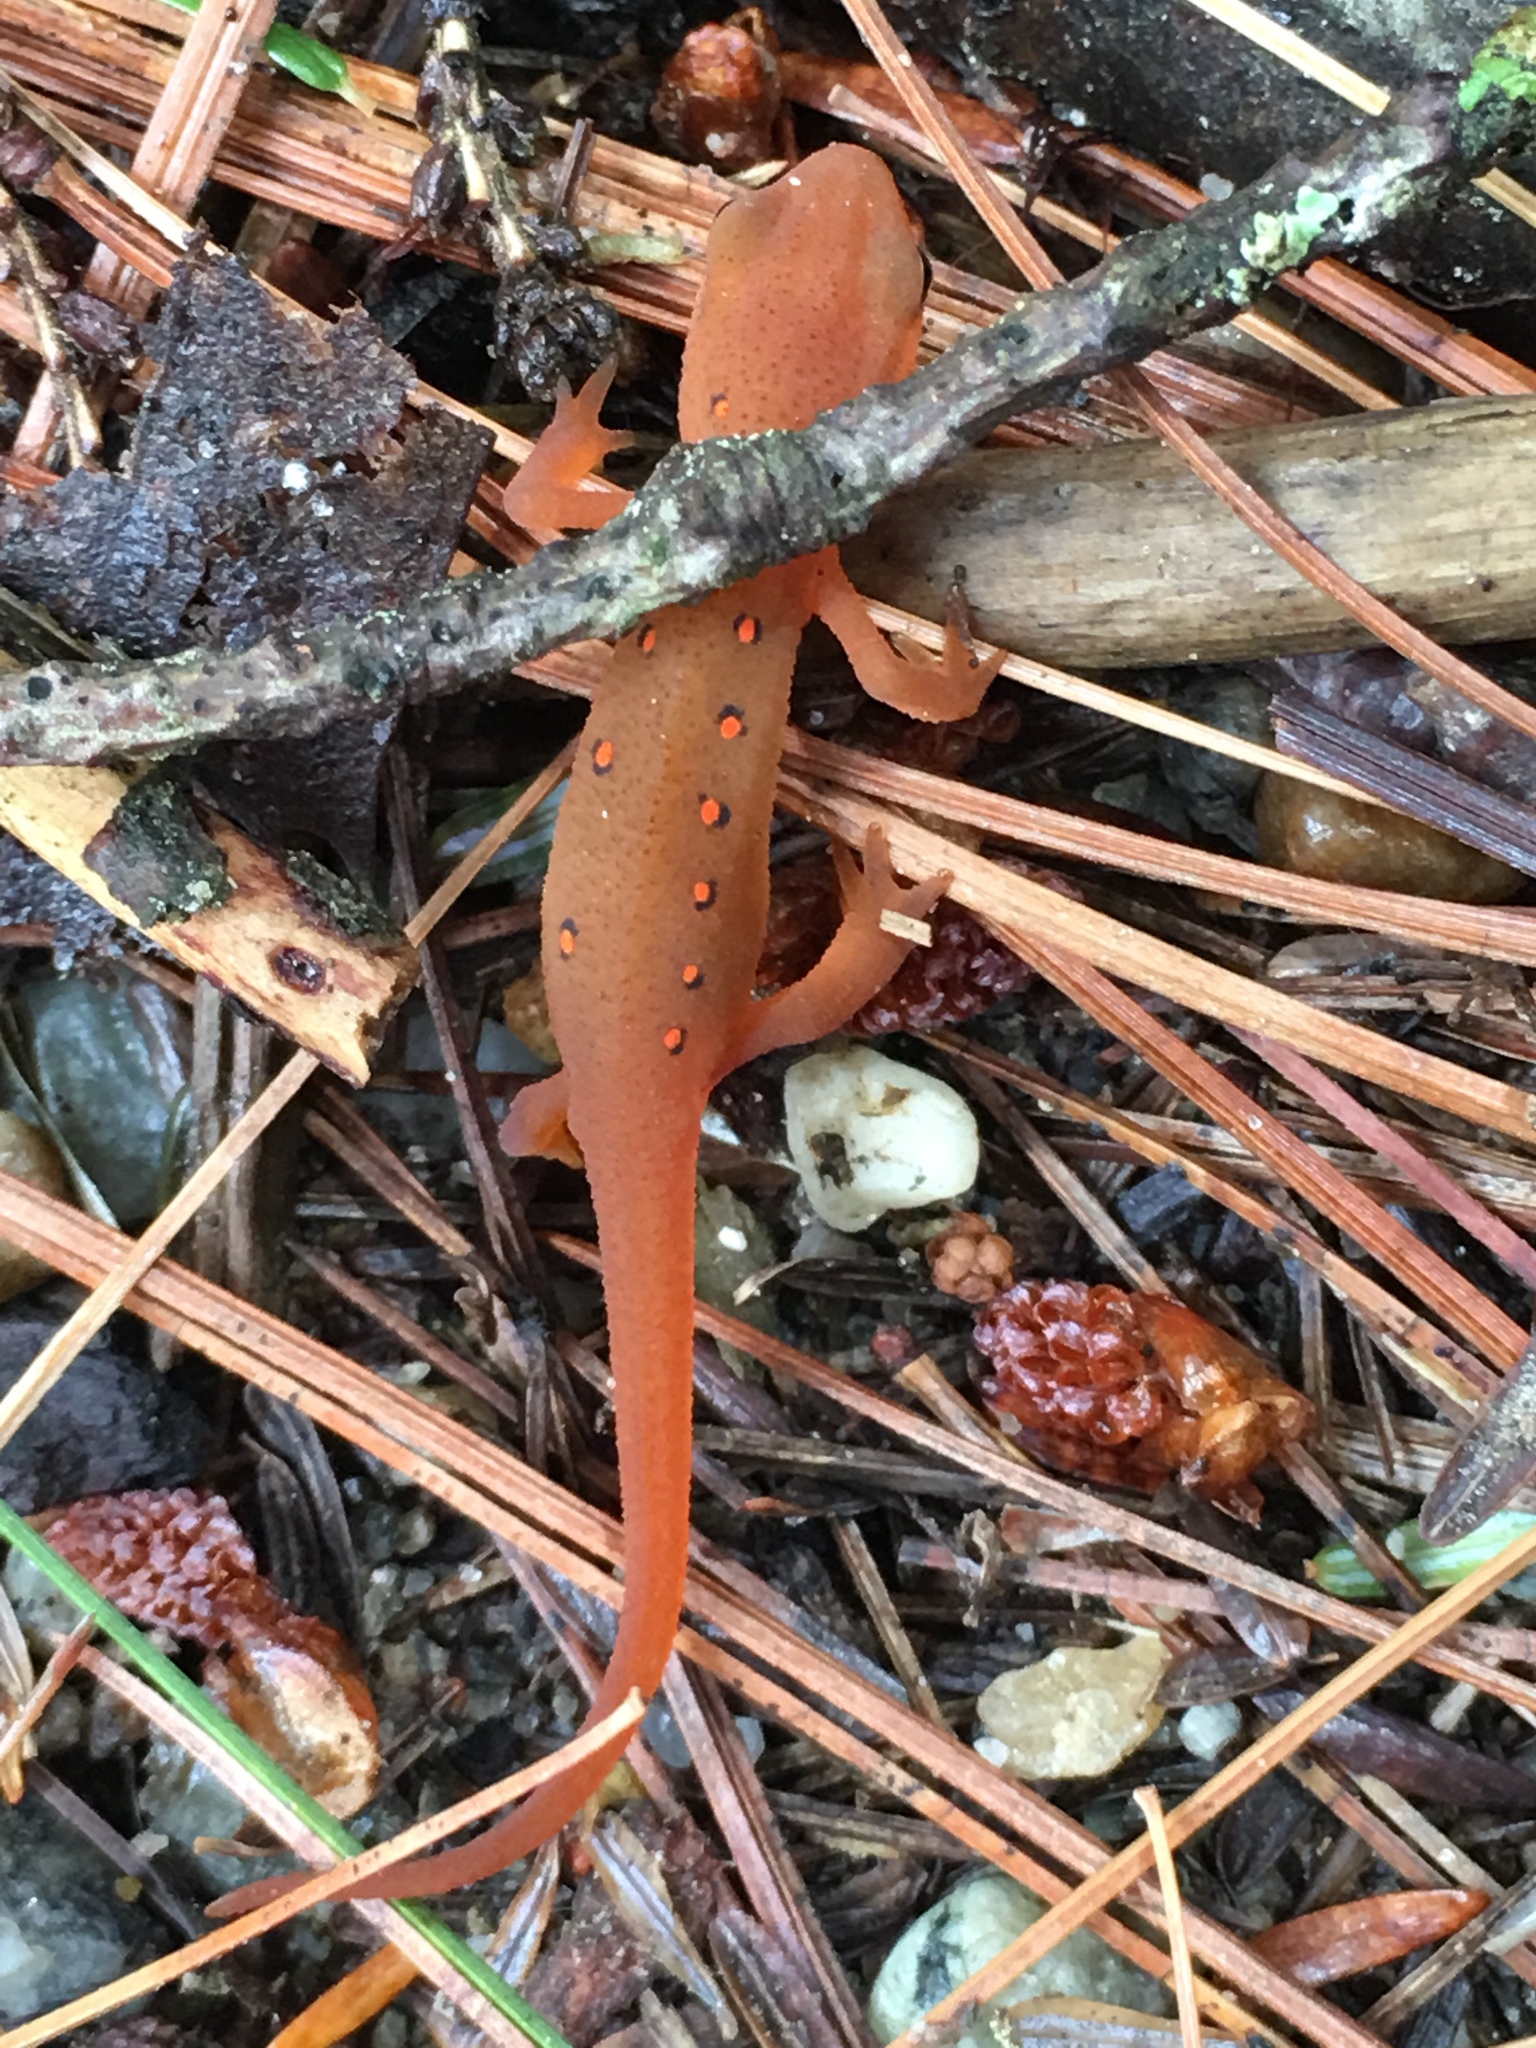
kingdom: Animalia
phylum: Chordata
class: Amphibia
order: Caudata
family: Salamandridae
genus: Notophthalmus
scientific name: Notophthalmus viridescens
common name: Eastern newt
